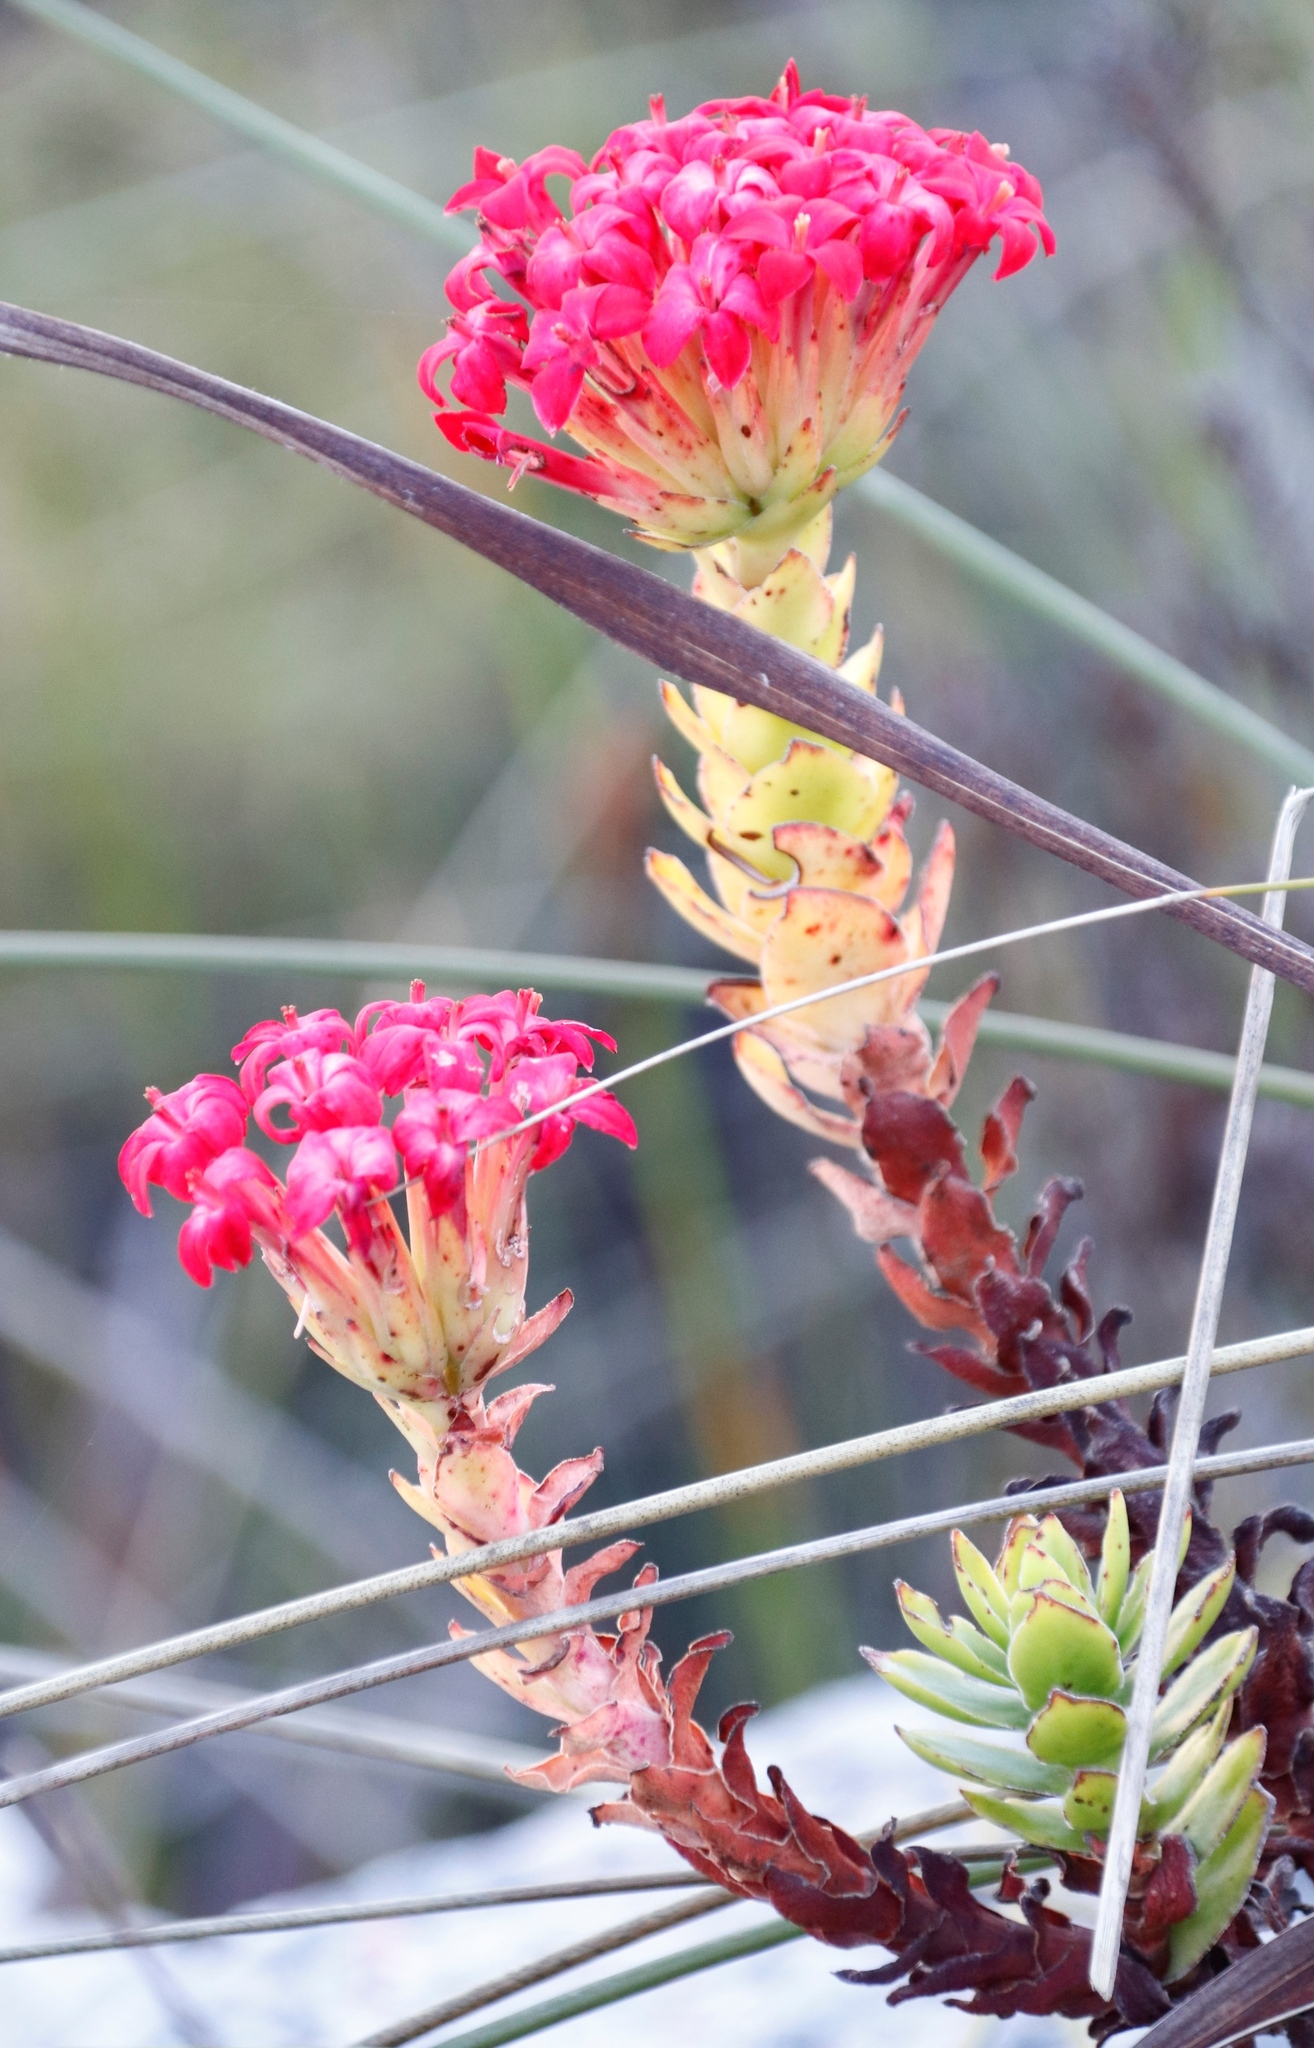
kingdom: Plantae
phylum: Tracheophyta
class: Magnoliopsida
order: Saxifragales
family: Crassulaceae
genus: Crassula
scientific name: Crassula coccinea
